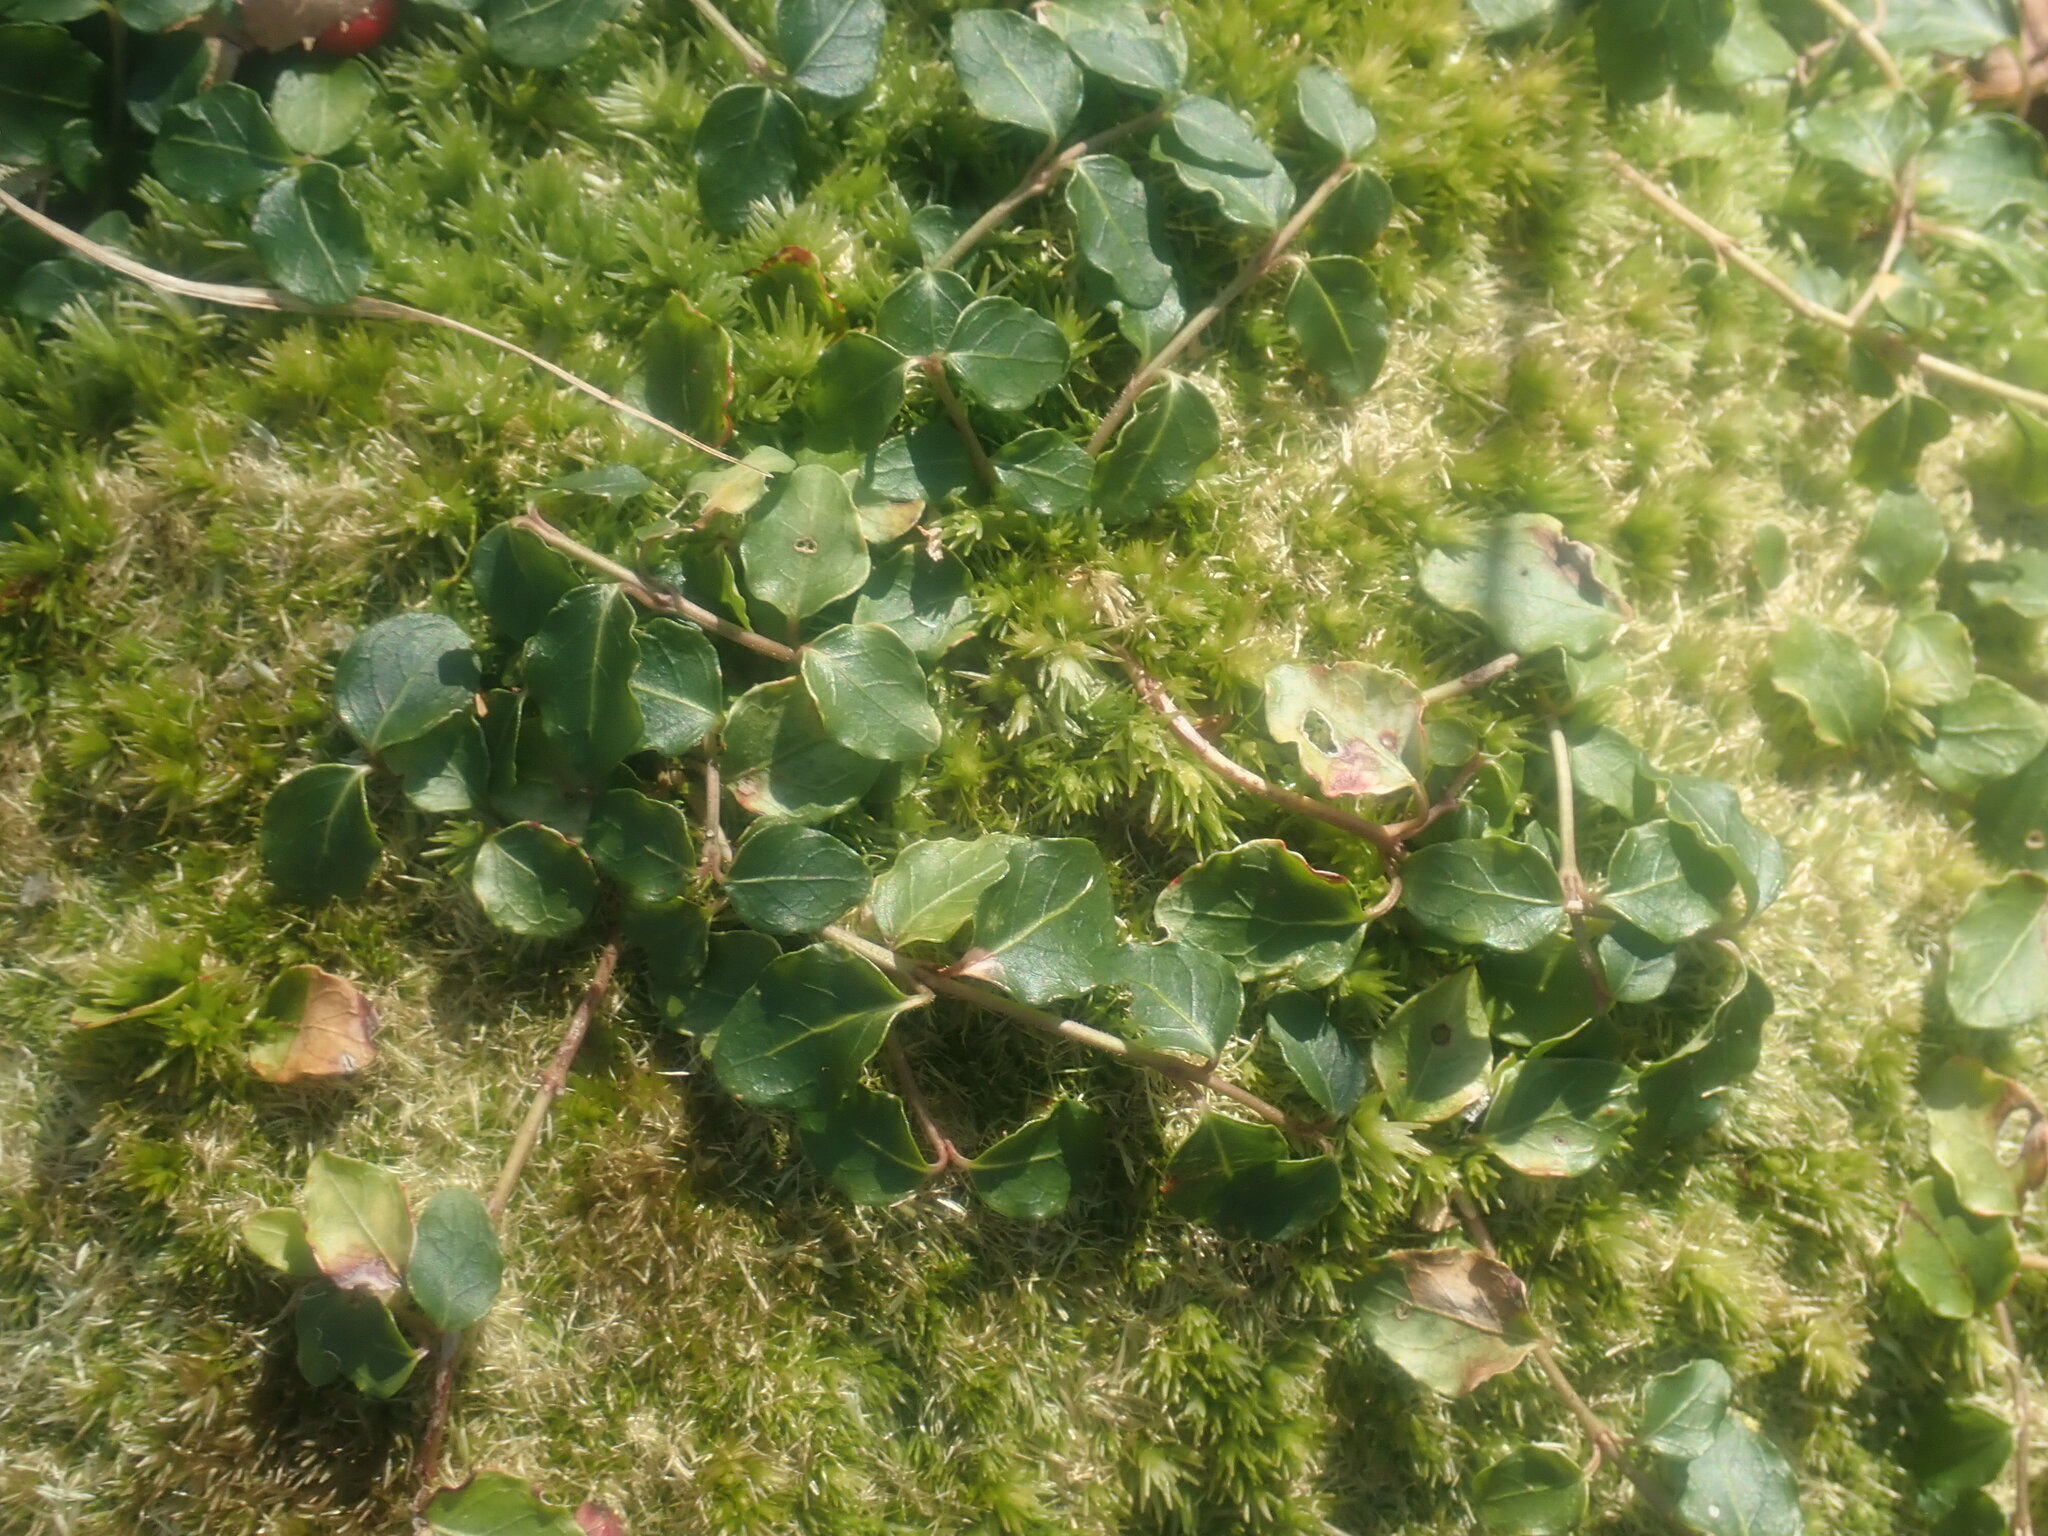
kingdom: Plantae
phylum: Tracheophyta
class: Magnoliopsida
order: Gentianales
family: Rubiaceae
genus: Mitchella
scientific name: Mitchella repens
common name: Partridge-berry
